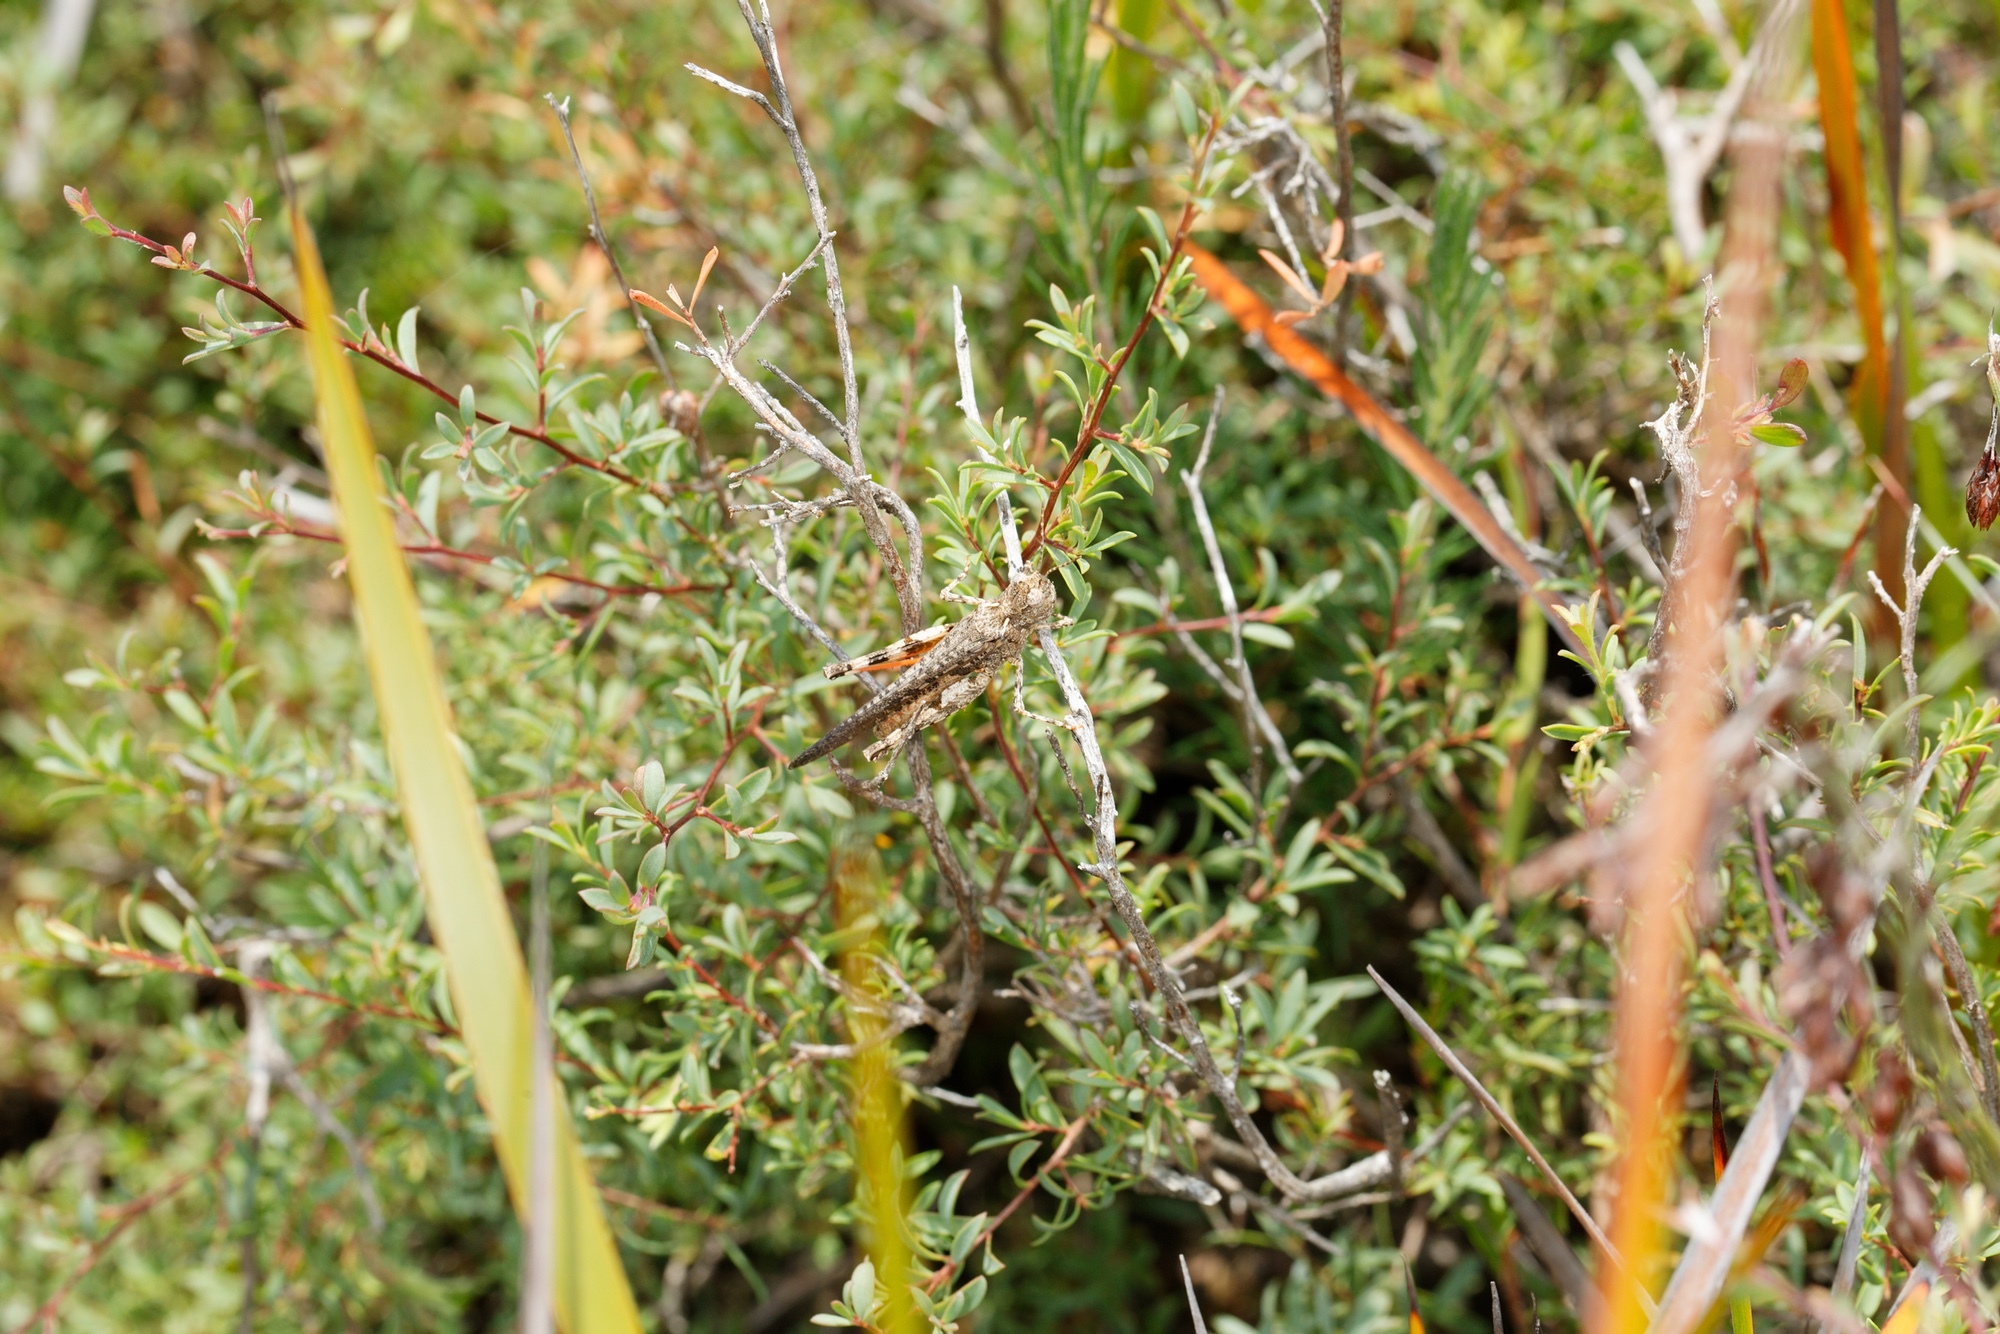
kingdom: Animalia
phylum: Arthropoda
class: Insecta
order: Orthoptera
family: Acrididae
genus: Austroicetes
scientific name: Austroicetes
